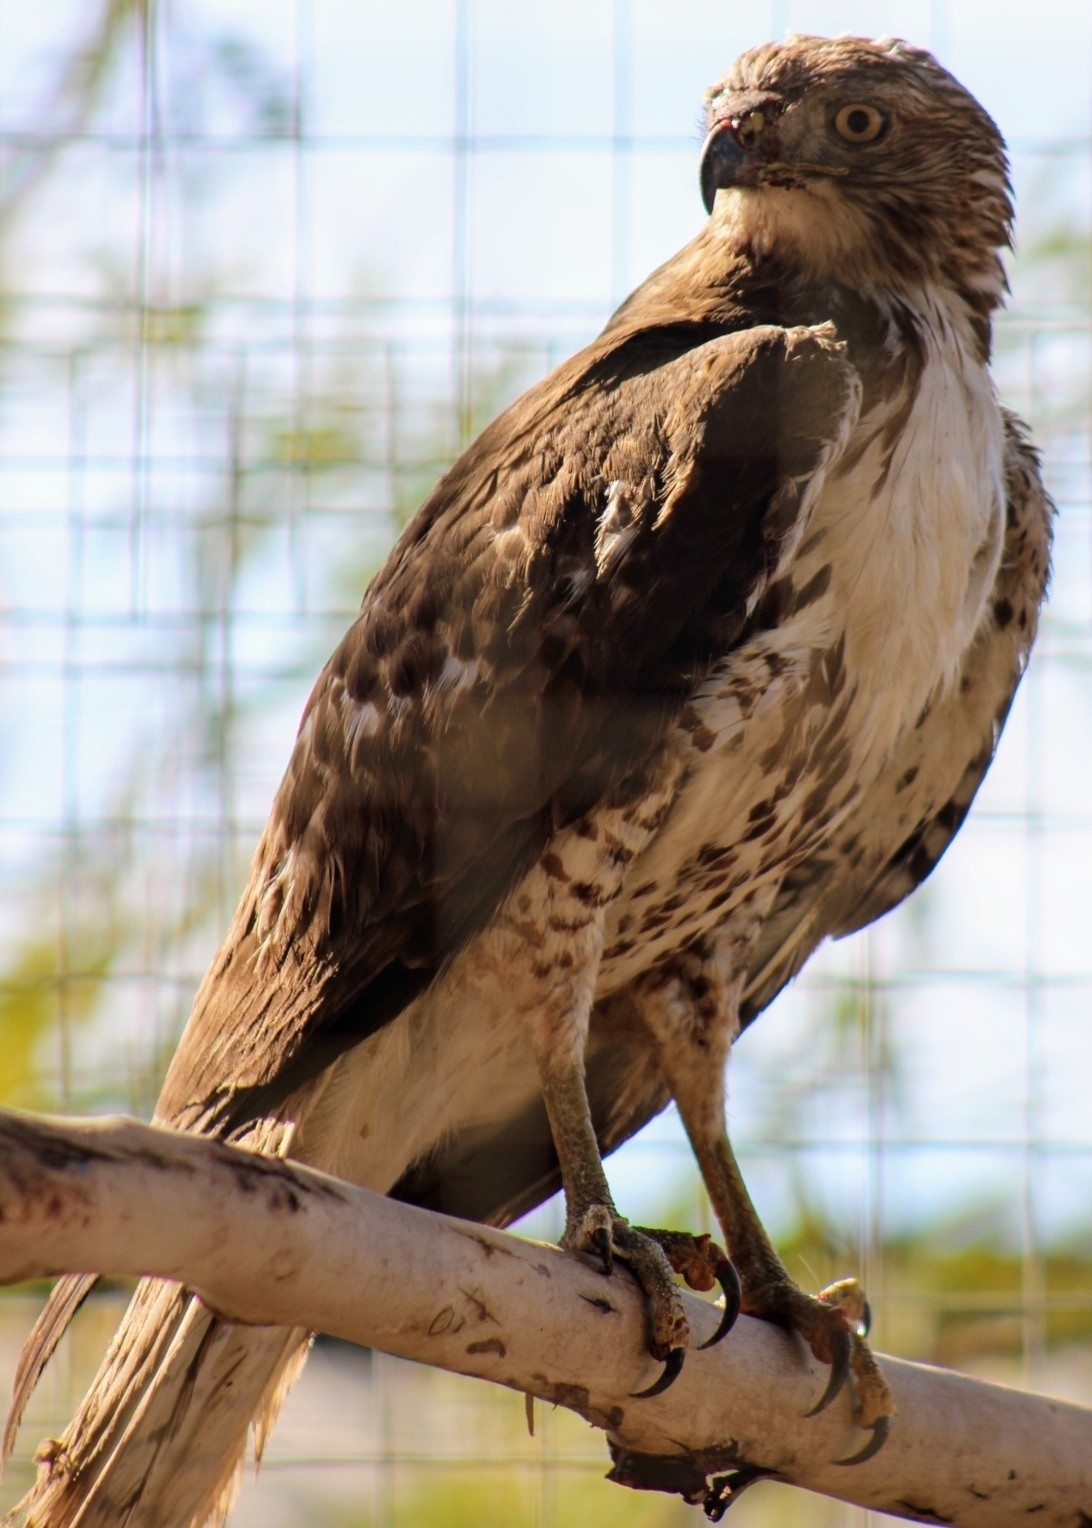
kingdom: Animalia
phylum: Chordata
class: Aves
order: Accipitriformes
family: Accipitridae
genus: Buteo
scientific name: Buteo jamaicensis
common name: Red-tailed hawk
